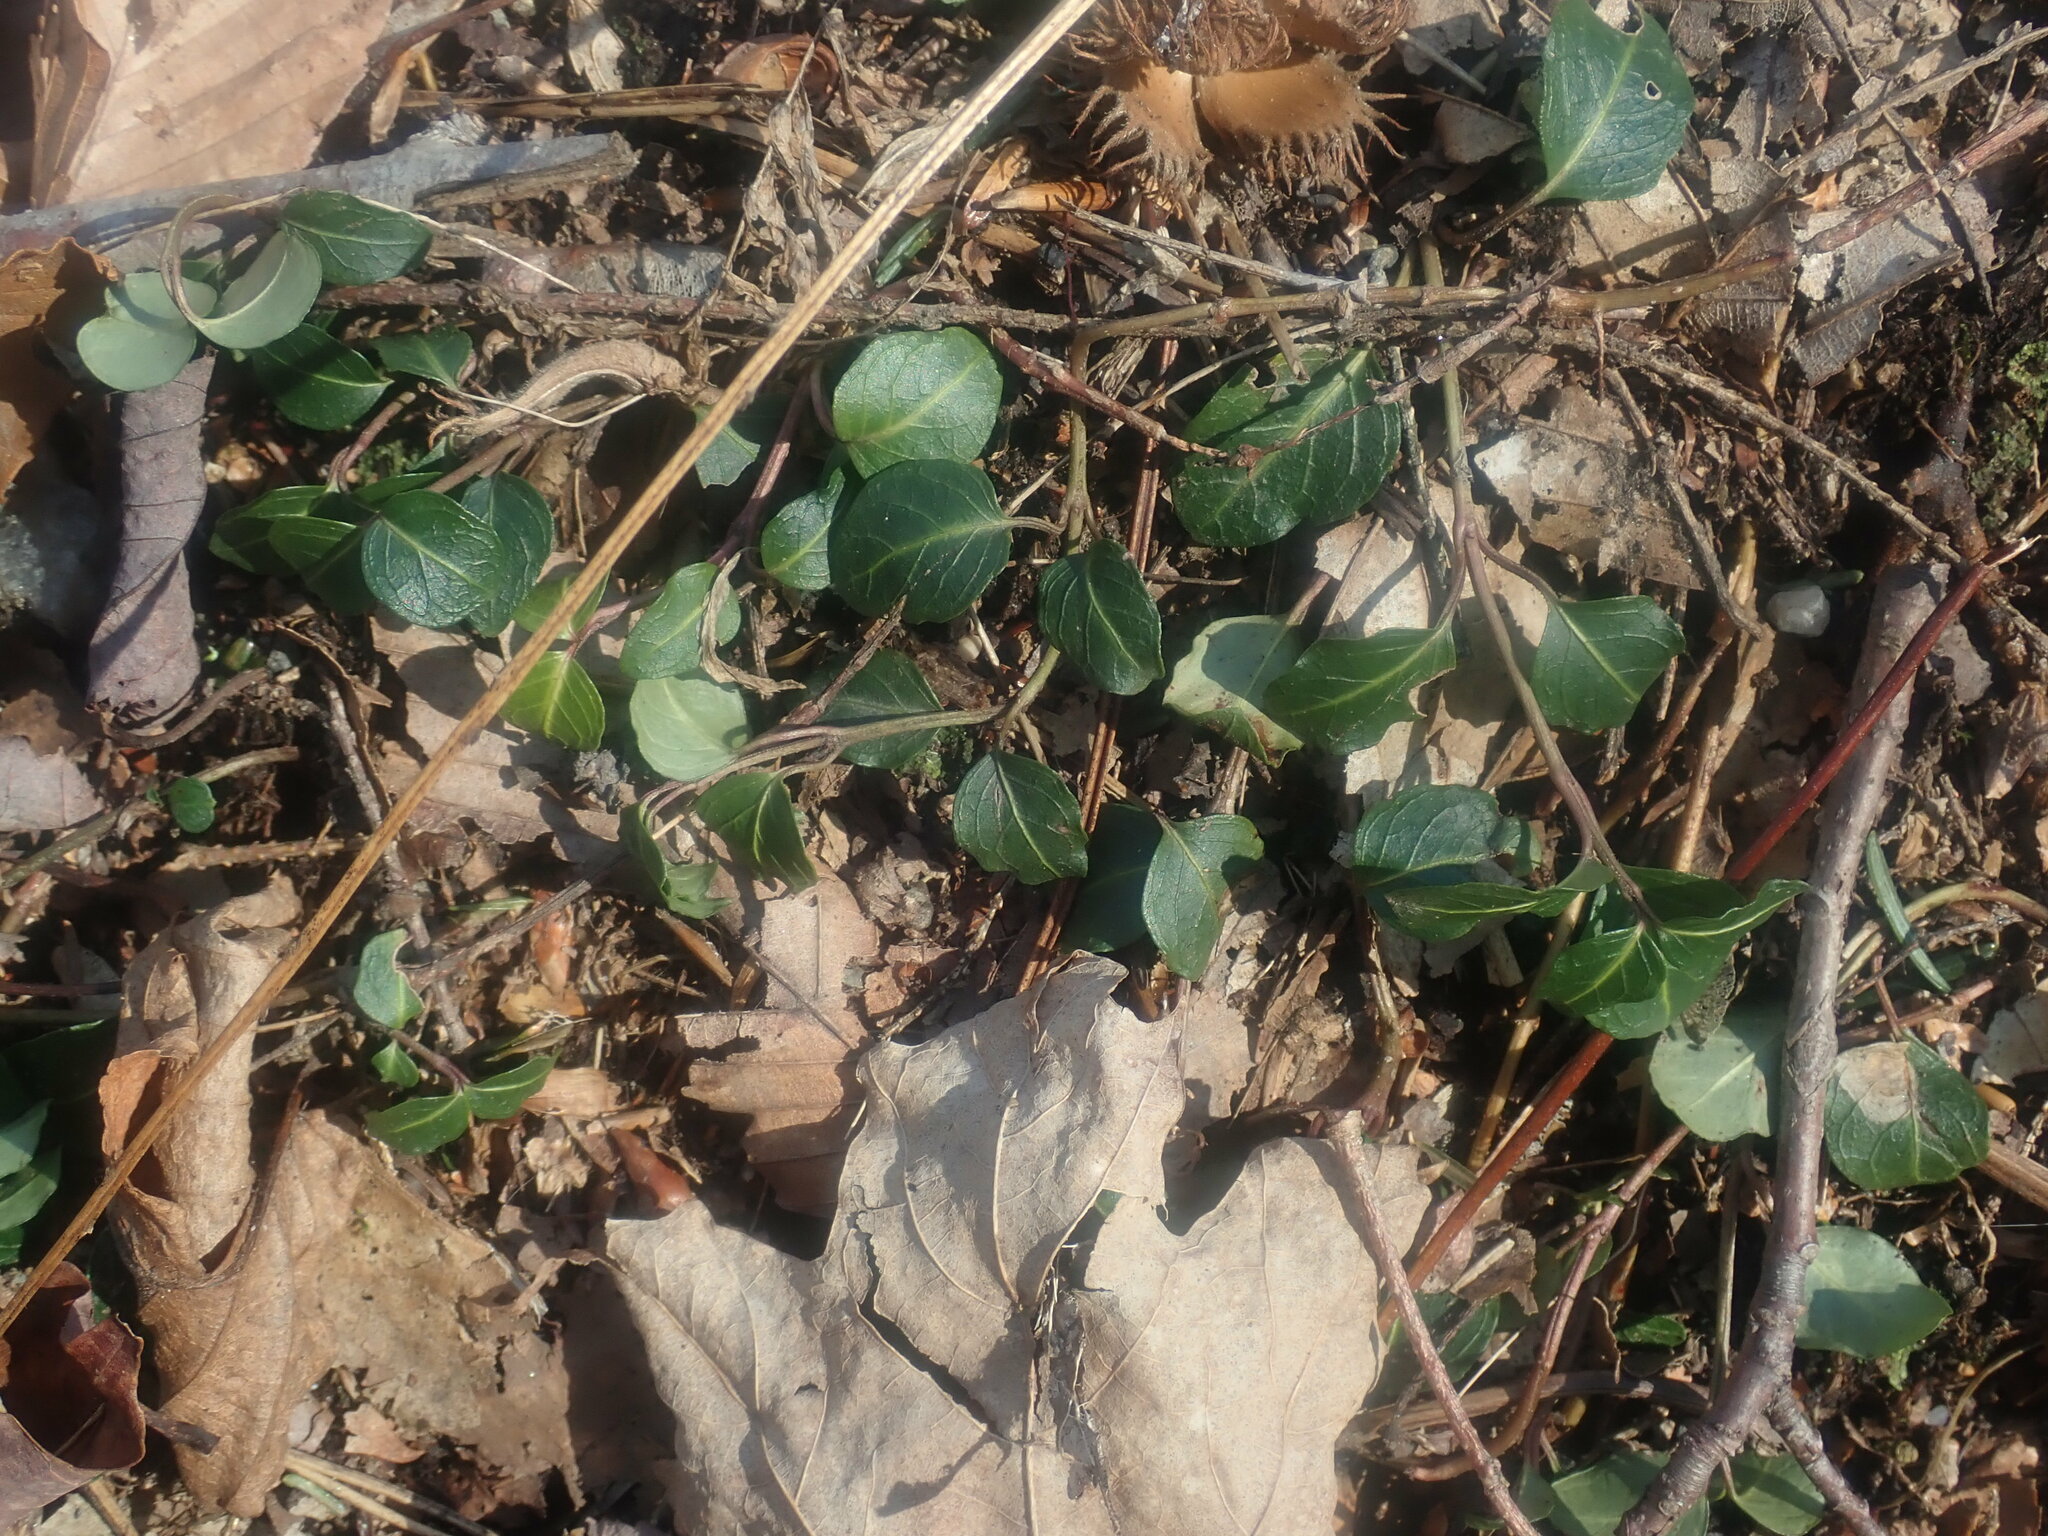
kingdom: Plantae
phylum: Tracheophyta
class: Magnoliopsida
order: Gentianales
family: Rubiaceae
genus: Mitchella
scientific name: Mitchella repens
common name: Partridge-berry
